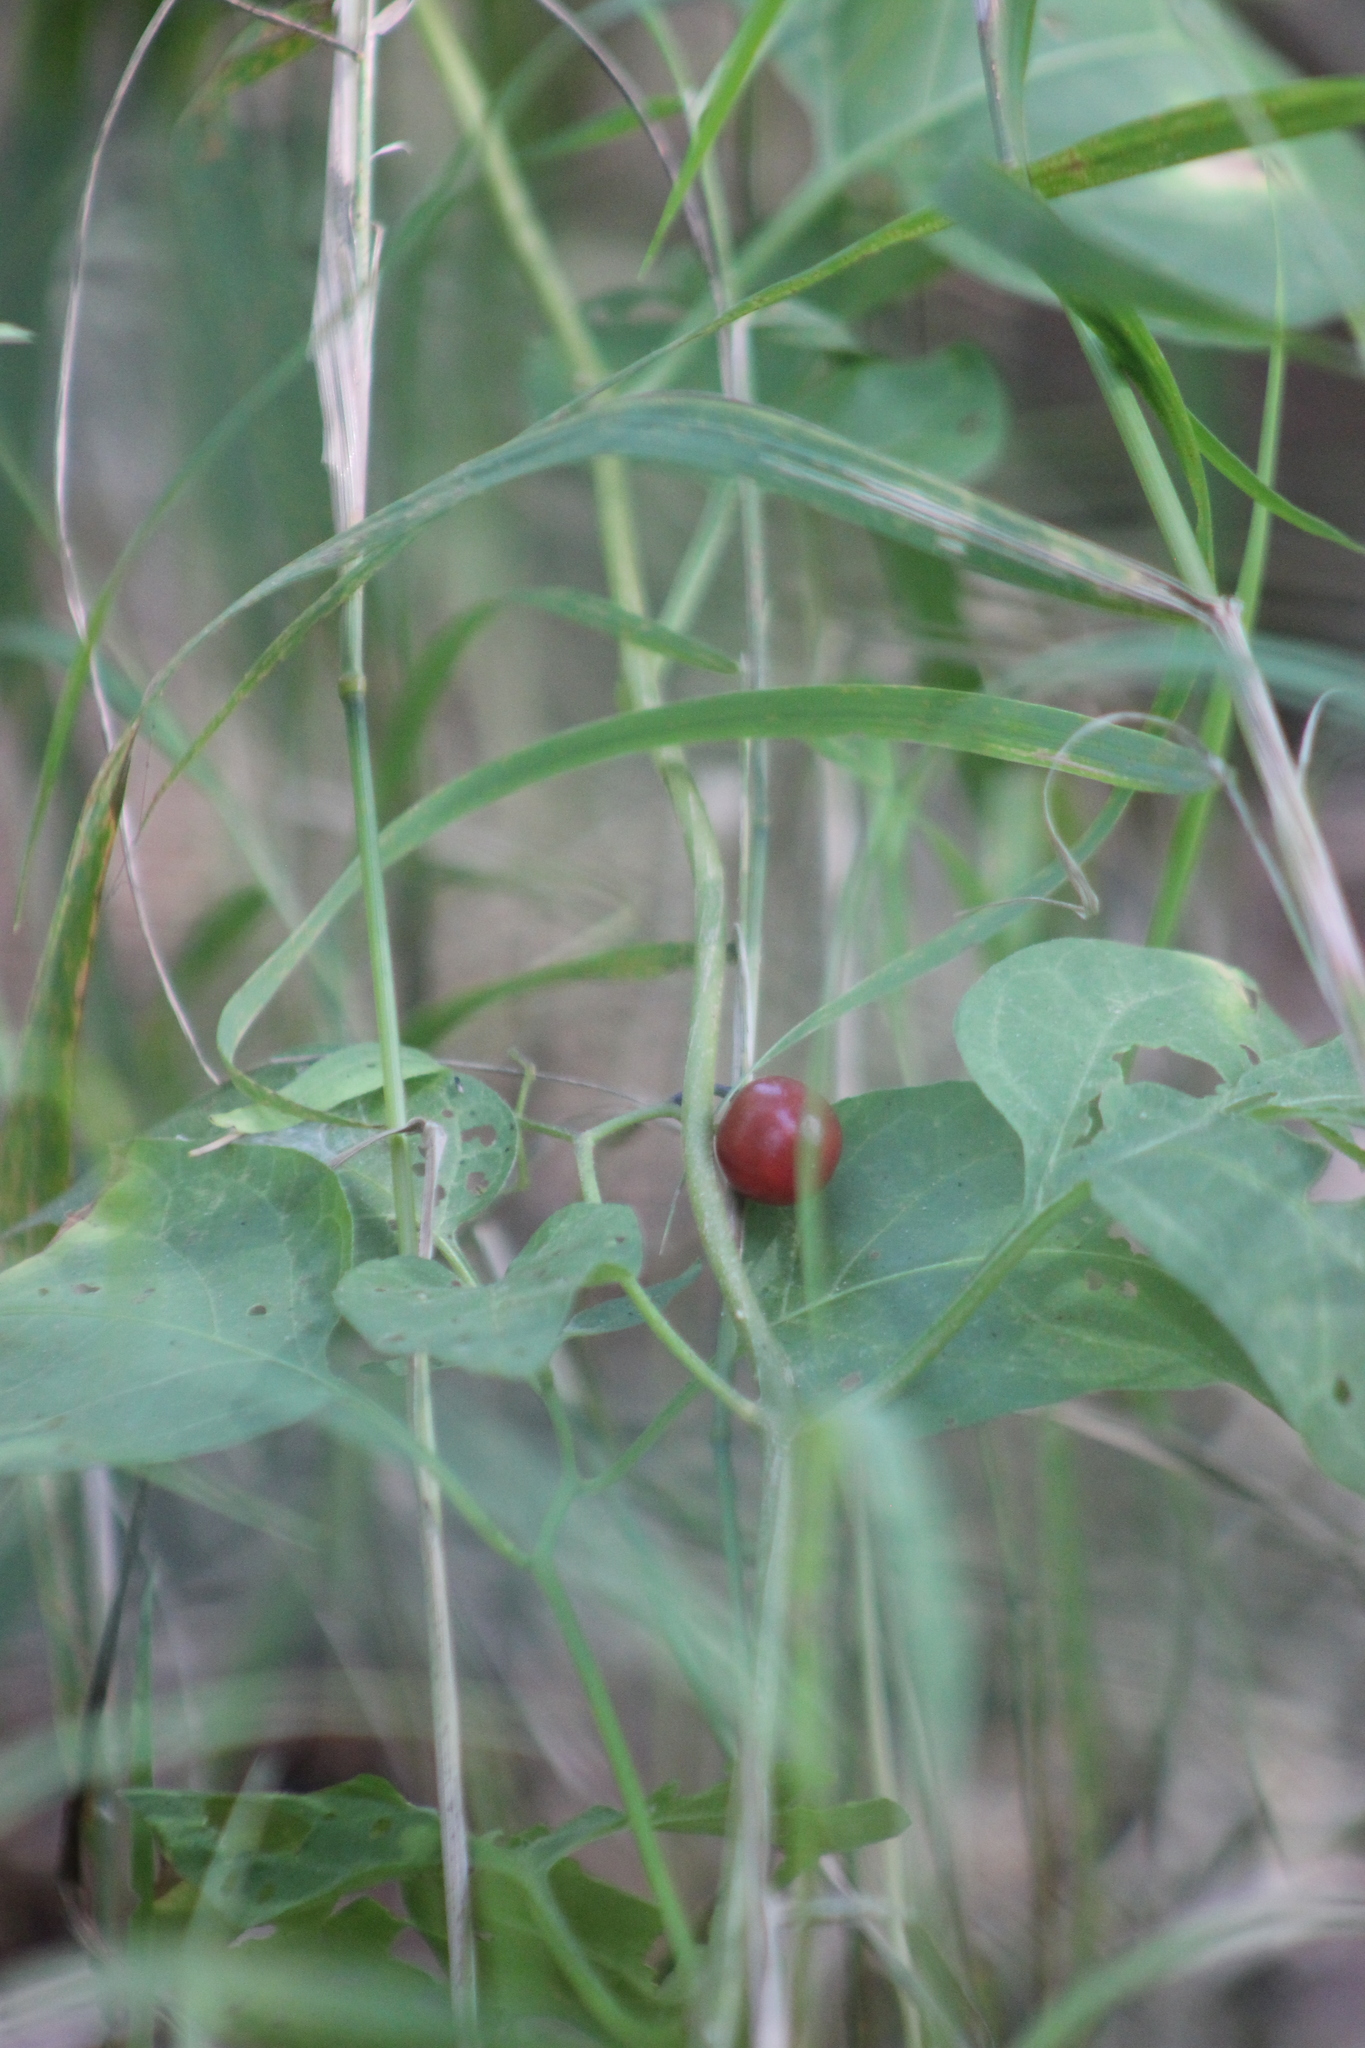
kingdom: Plantae
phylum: Tracheophyta
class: Magnoliopsida
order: Solanales
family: Solanaceae
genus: Solanum
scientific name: Solanum dulcamara
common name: Climbing nightshade
